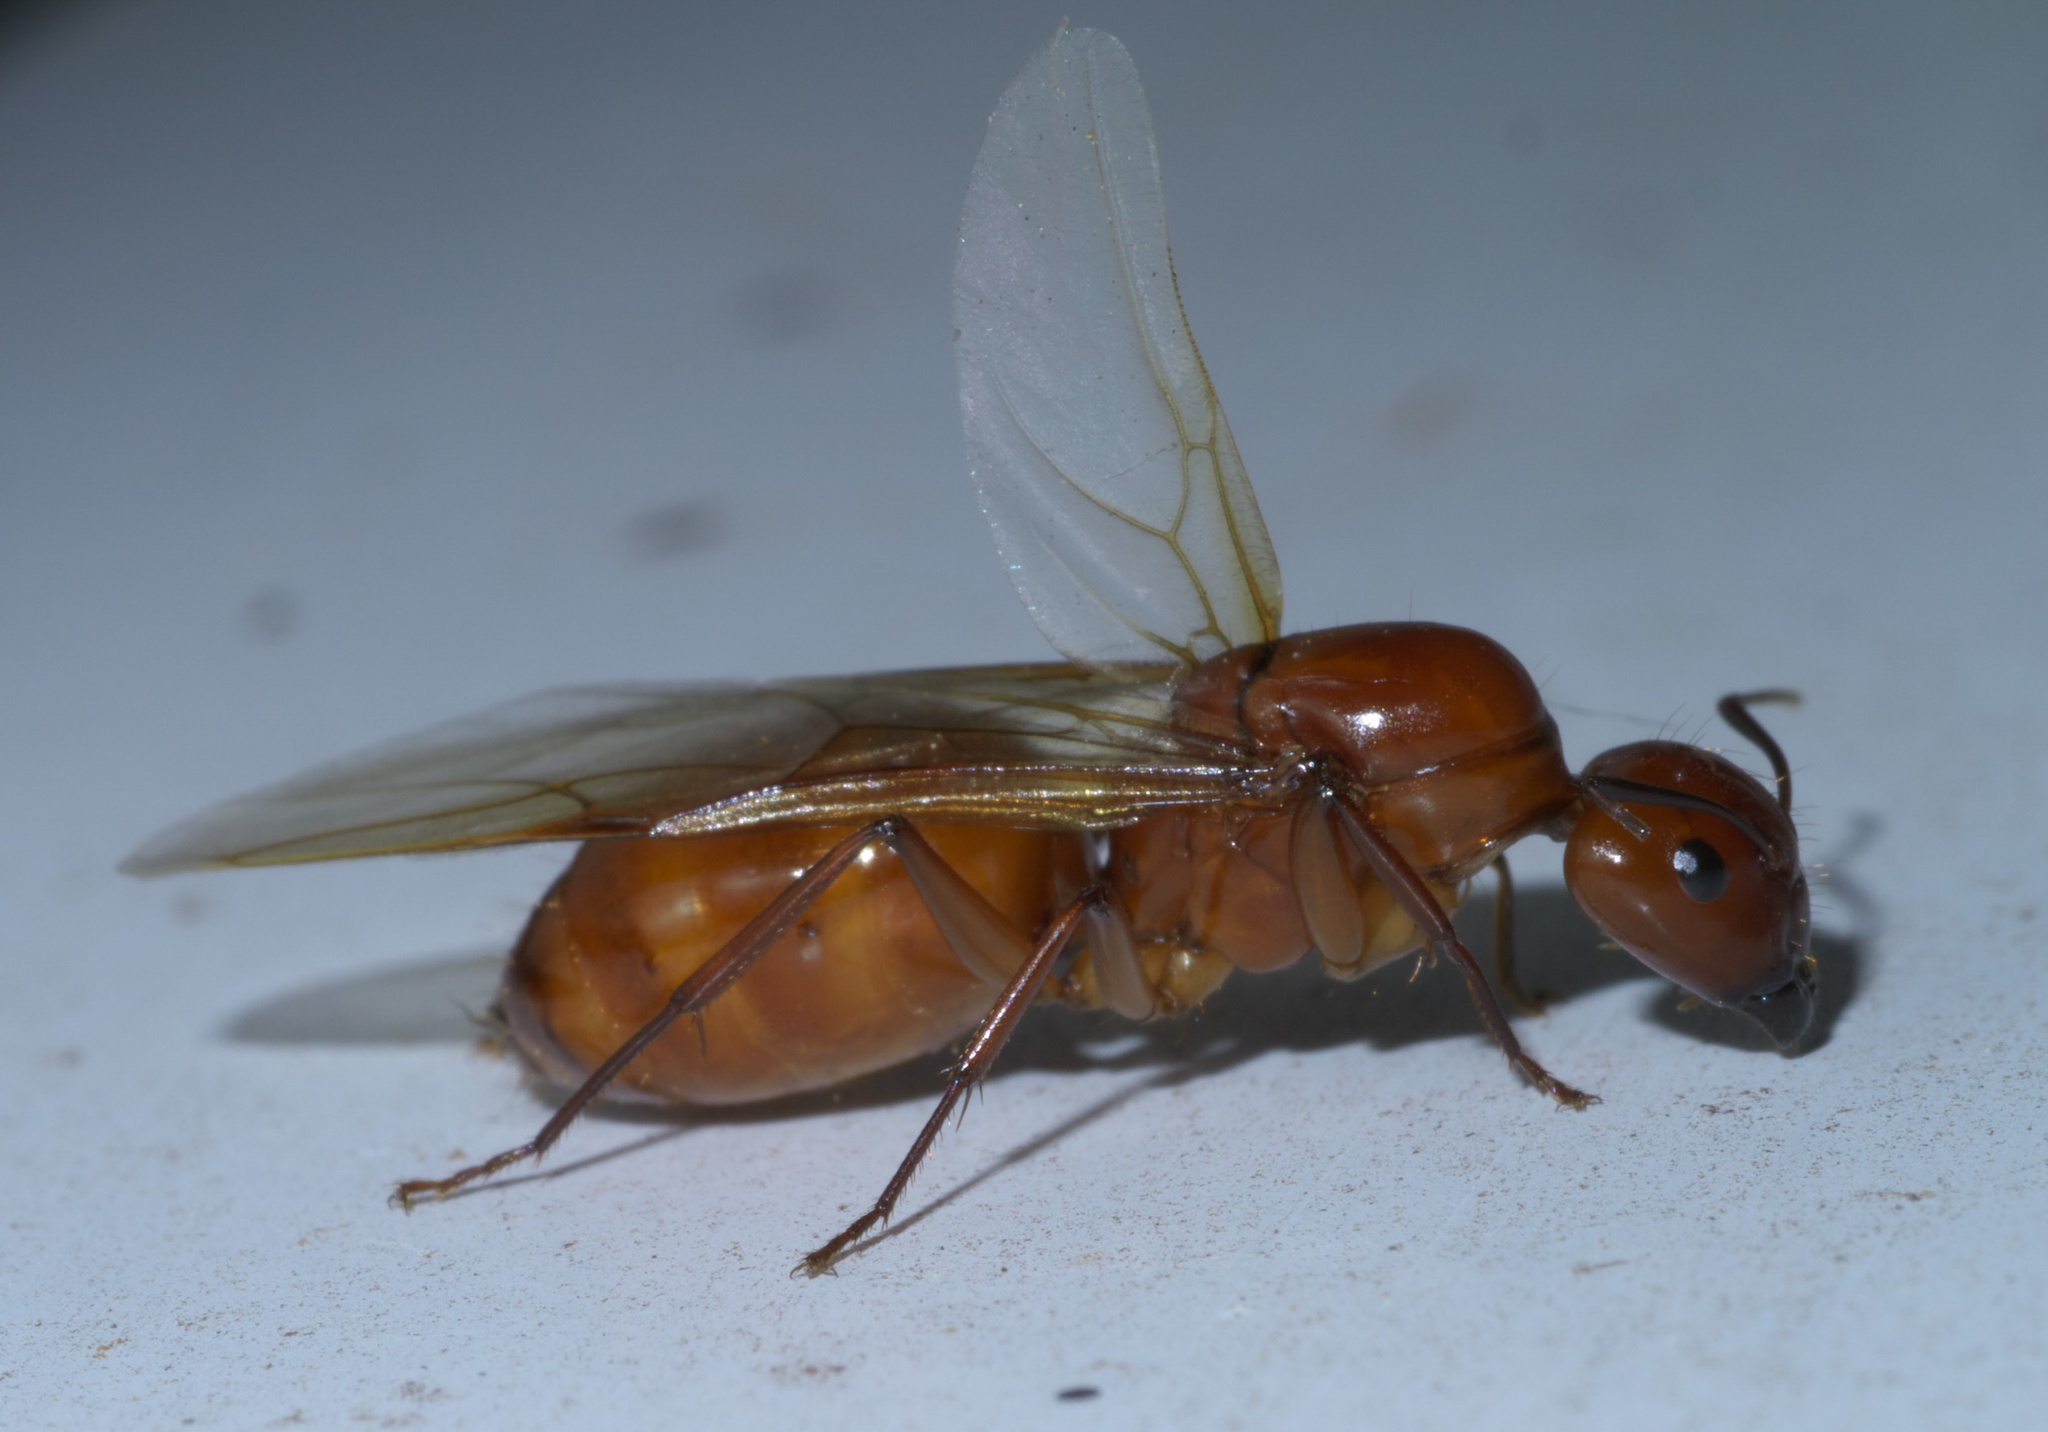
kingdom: Animalia
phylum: Arthropoda
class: Insecta
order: Hymenoptera
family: Formicidae
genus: Camponotus
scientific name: Camponotus castaneus
